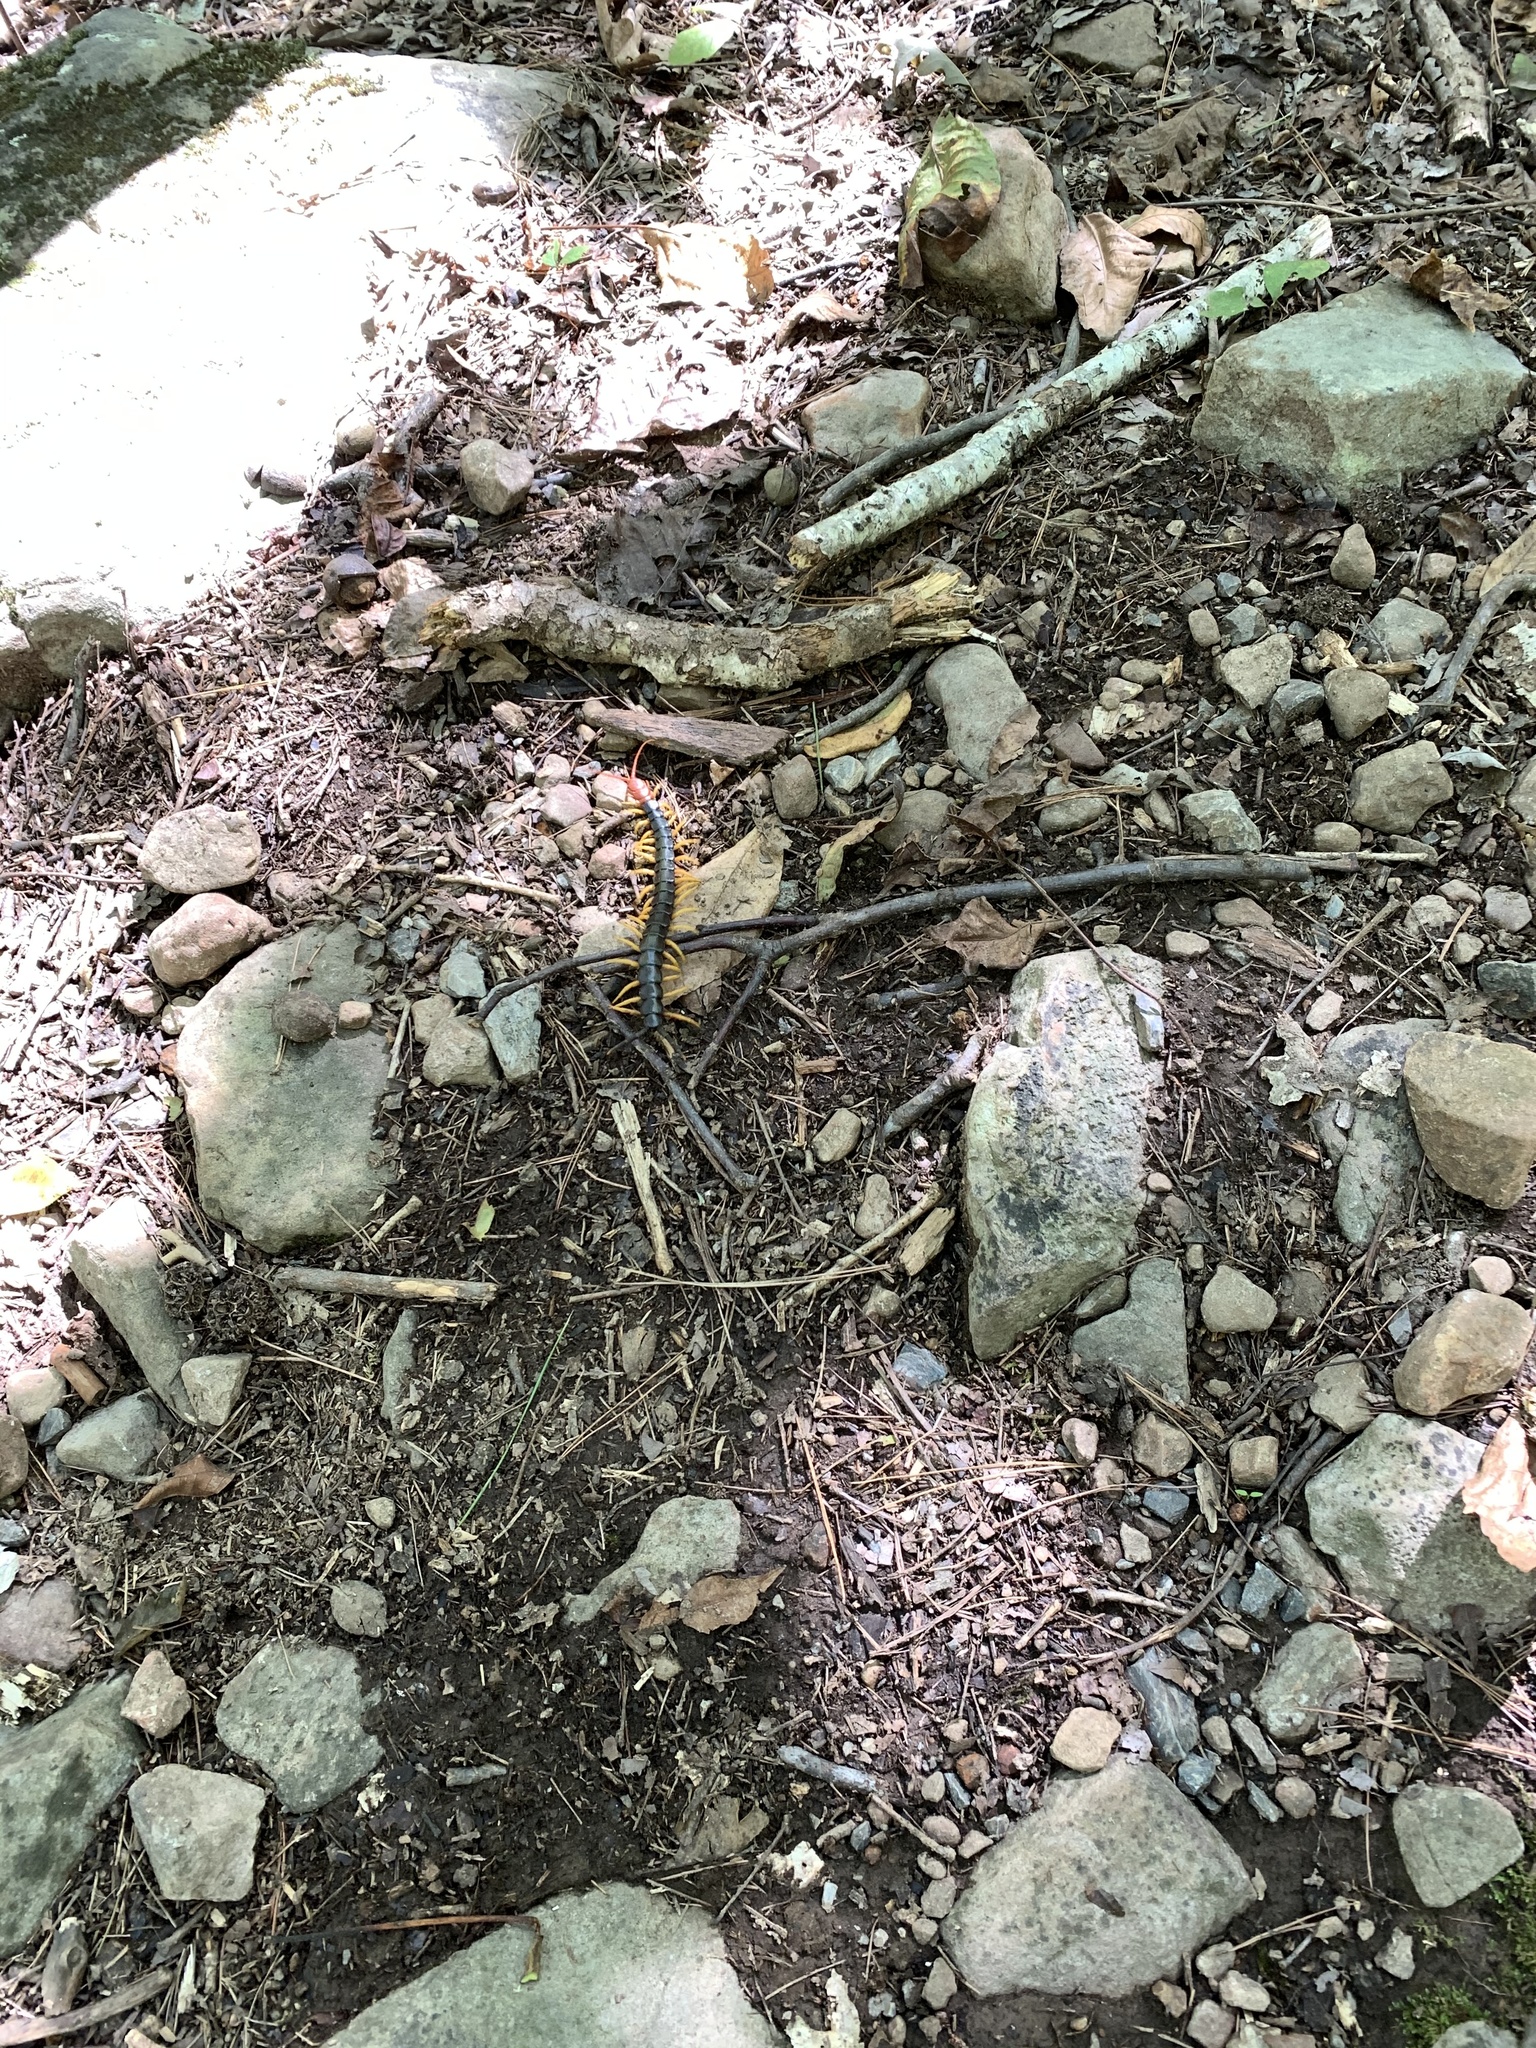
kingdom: Animalia
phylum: Arthropoda
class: Chilopoda
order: Scolopendromorpha
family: Scolopendridae
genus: Scolopendra
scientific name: Scolopendra heros
